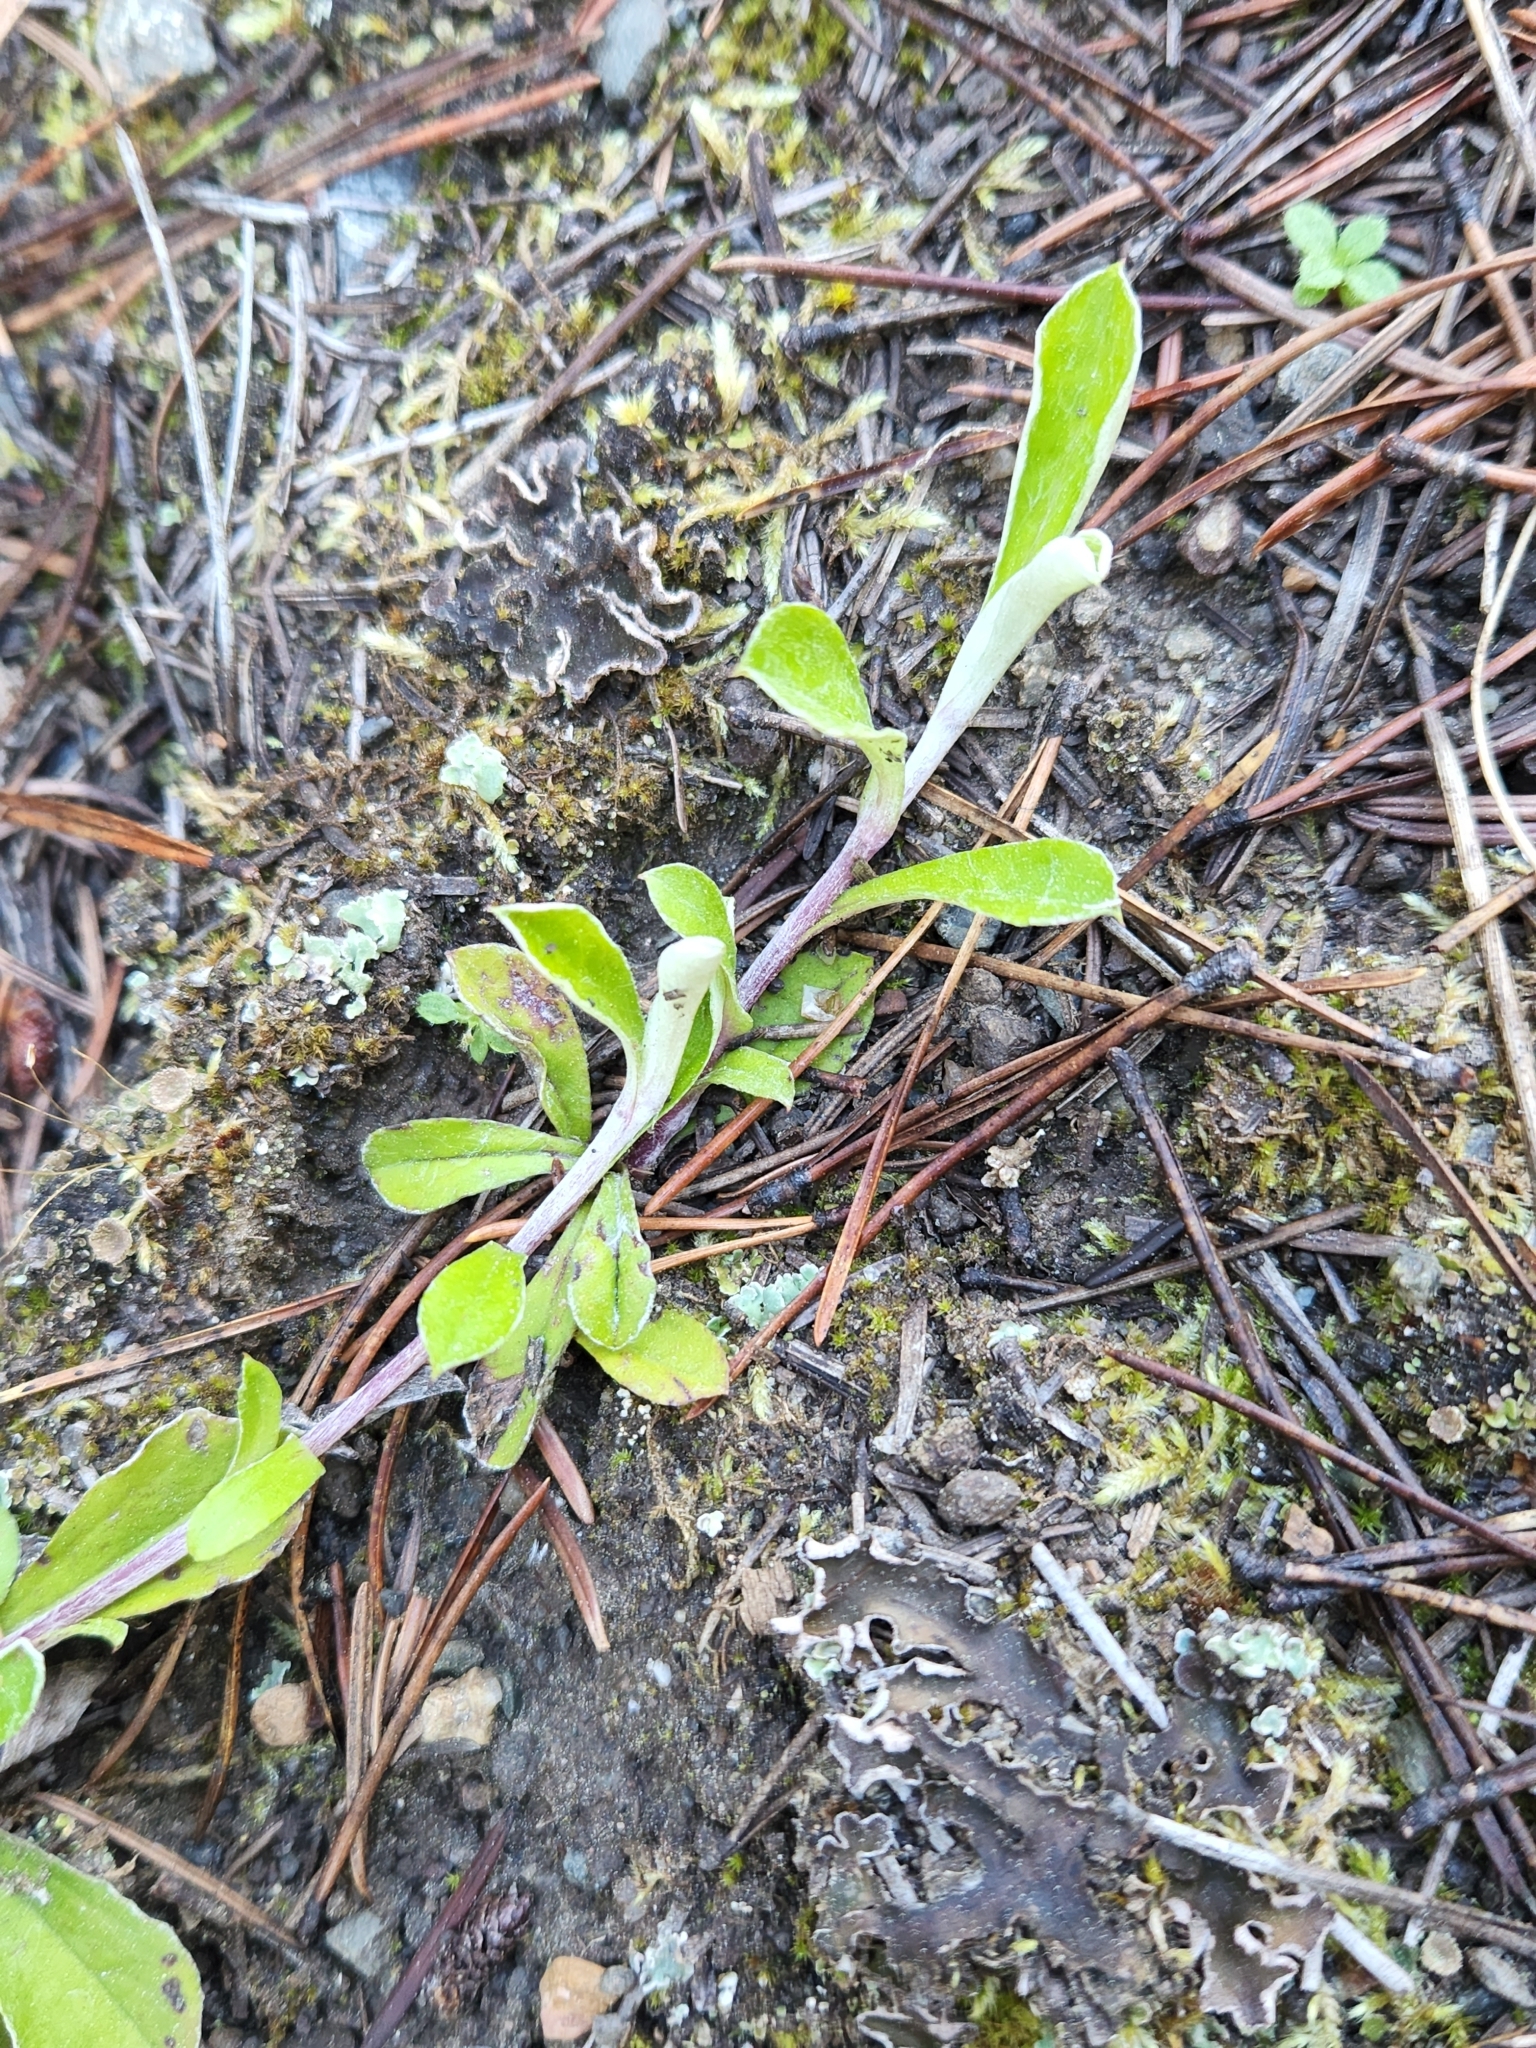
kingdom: Plantae
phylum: Tracheophyta
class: Magnoliopsida
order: Asterales
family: Asteraceae
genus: Antennaria
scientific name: Antennaria howellii
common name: Howell's pussytoes
